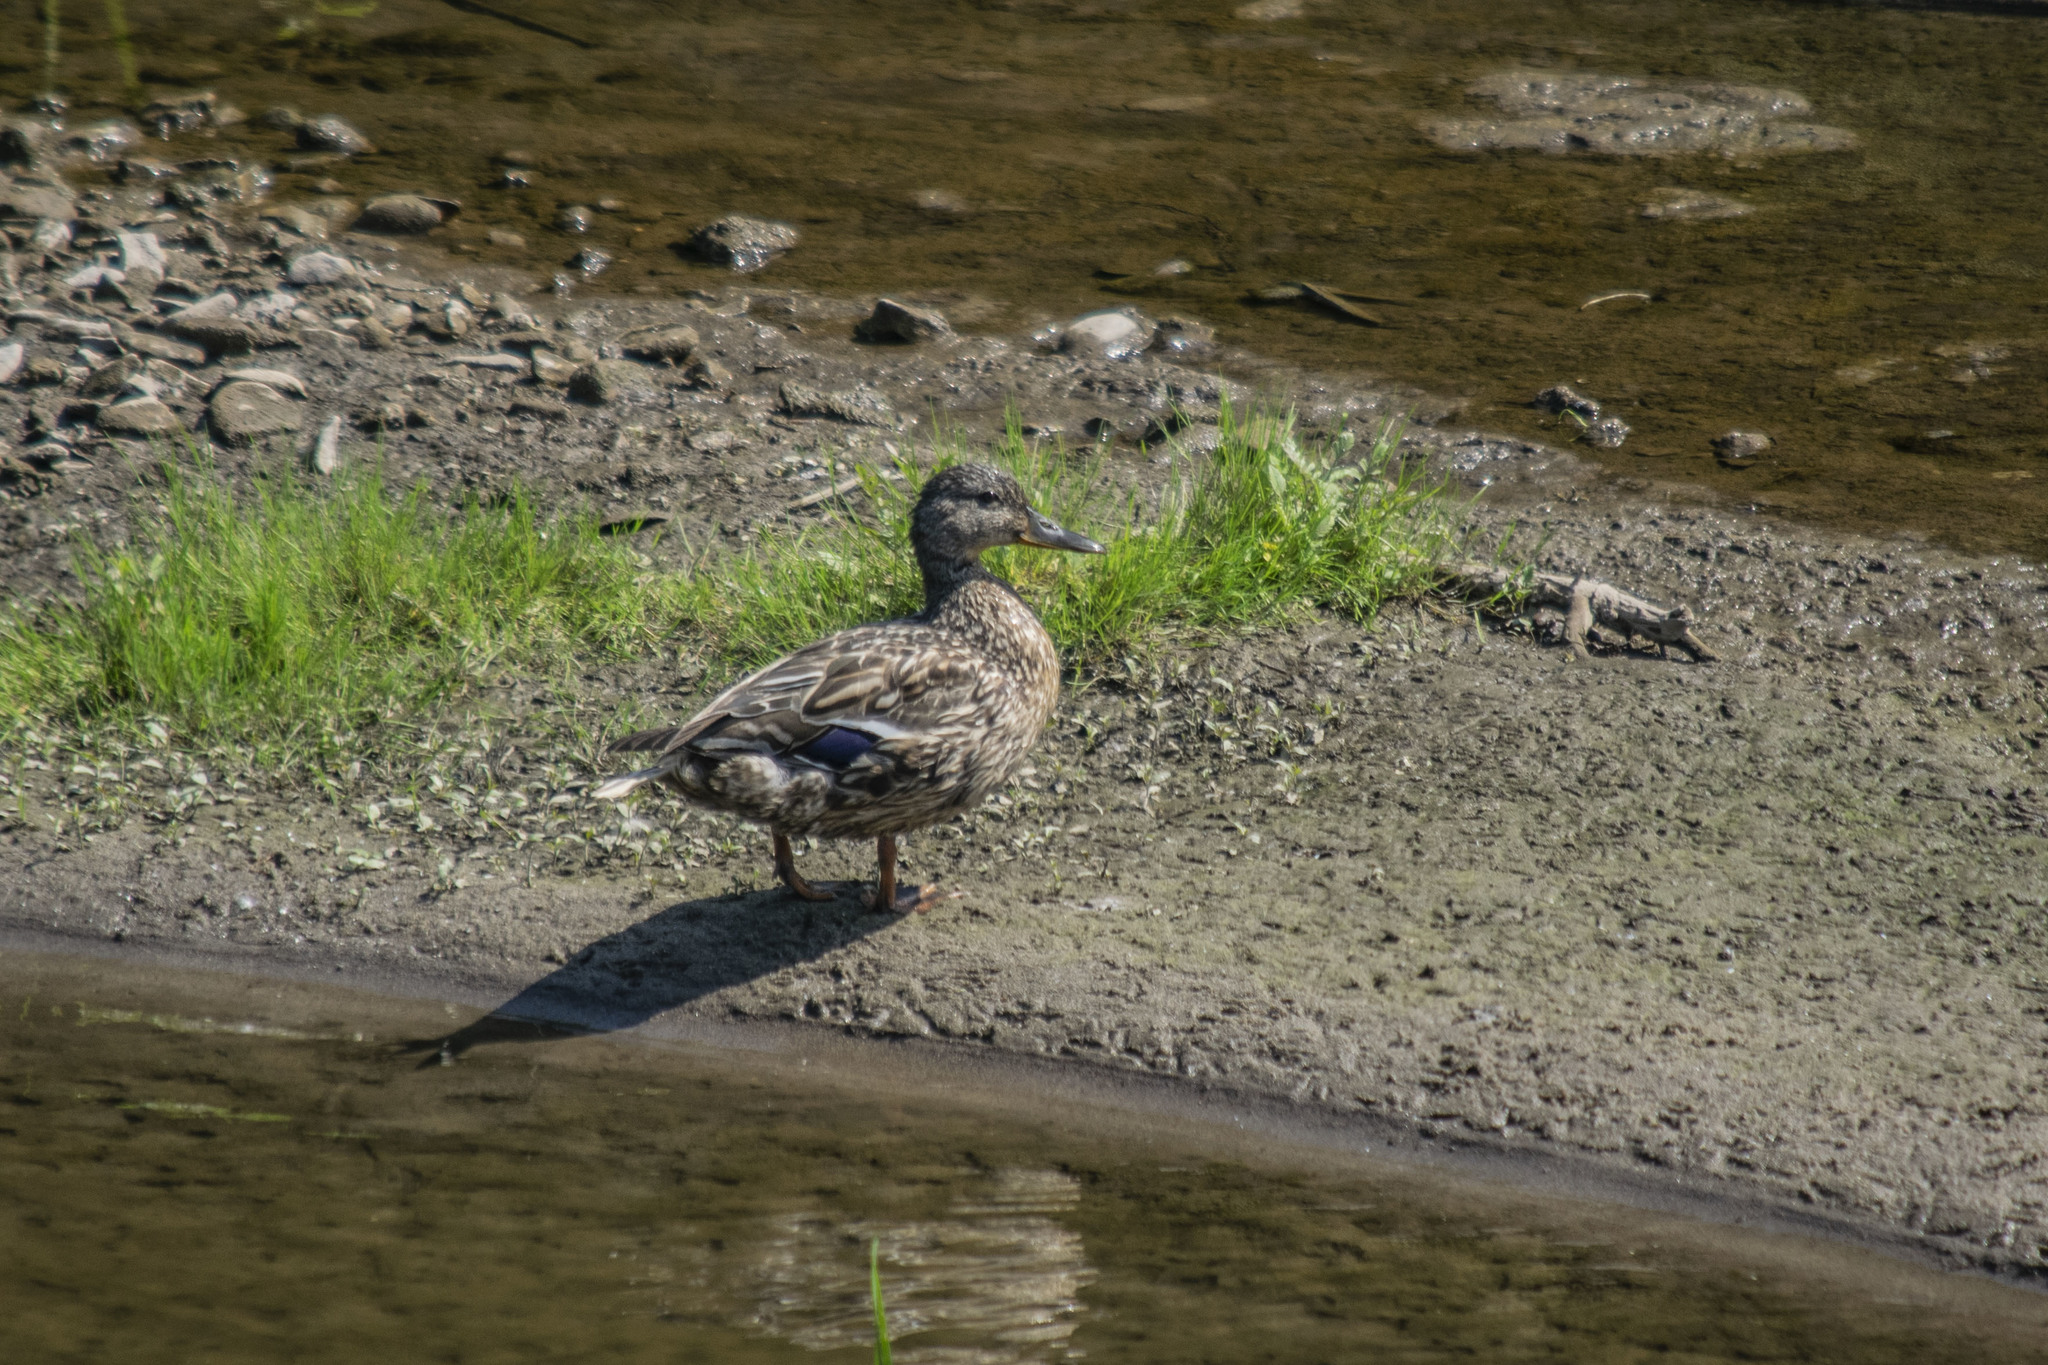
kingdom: Animalia
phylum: Chordata
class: Aves
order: Anseriformes
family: Anatidae
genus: Anas
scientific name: Anas platyrhynchos
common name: Mallard
